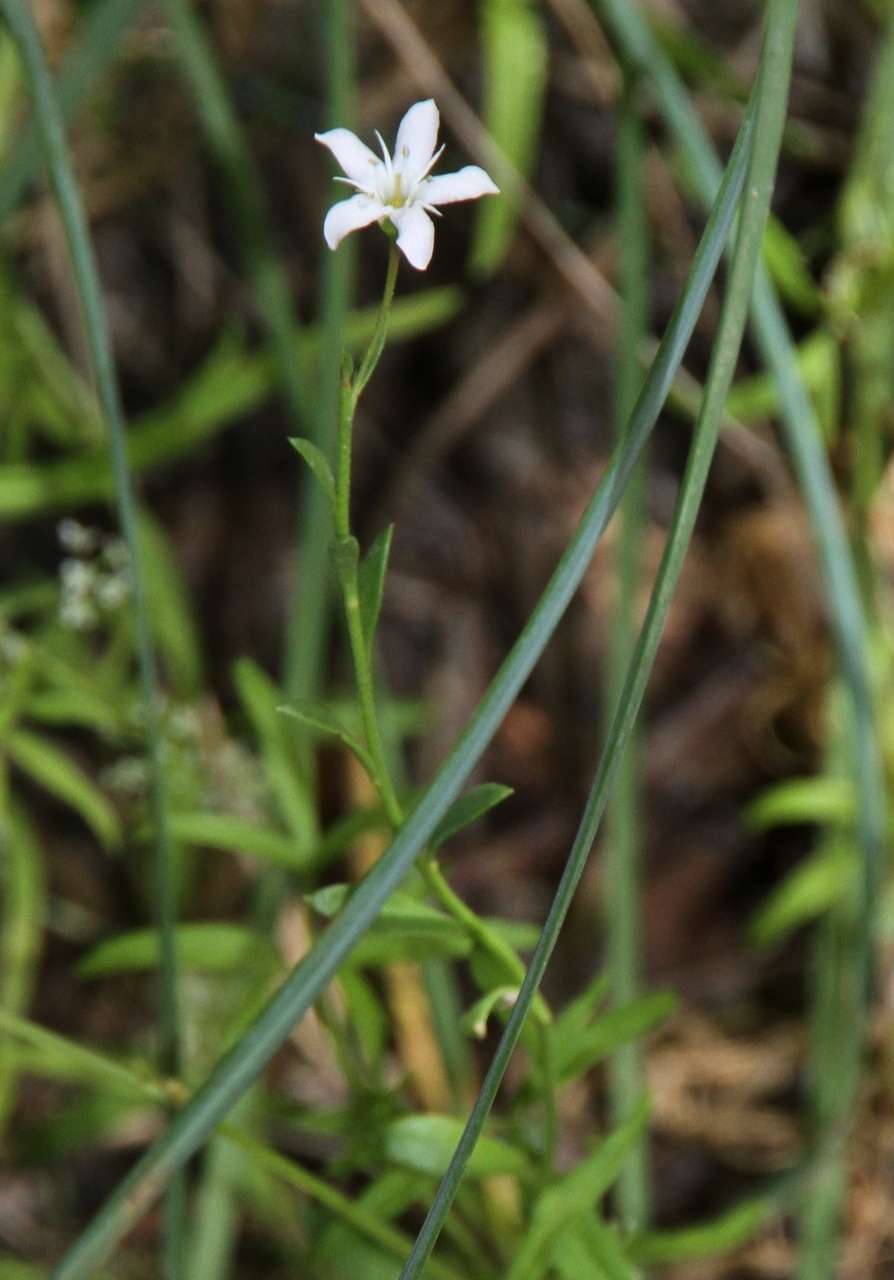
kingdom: Plantae
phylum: Tracheophyta
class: Magnoliopsida
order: Ericales
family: Primulaceae
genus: Samolus
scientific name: Samolus repens
